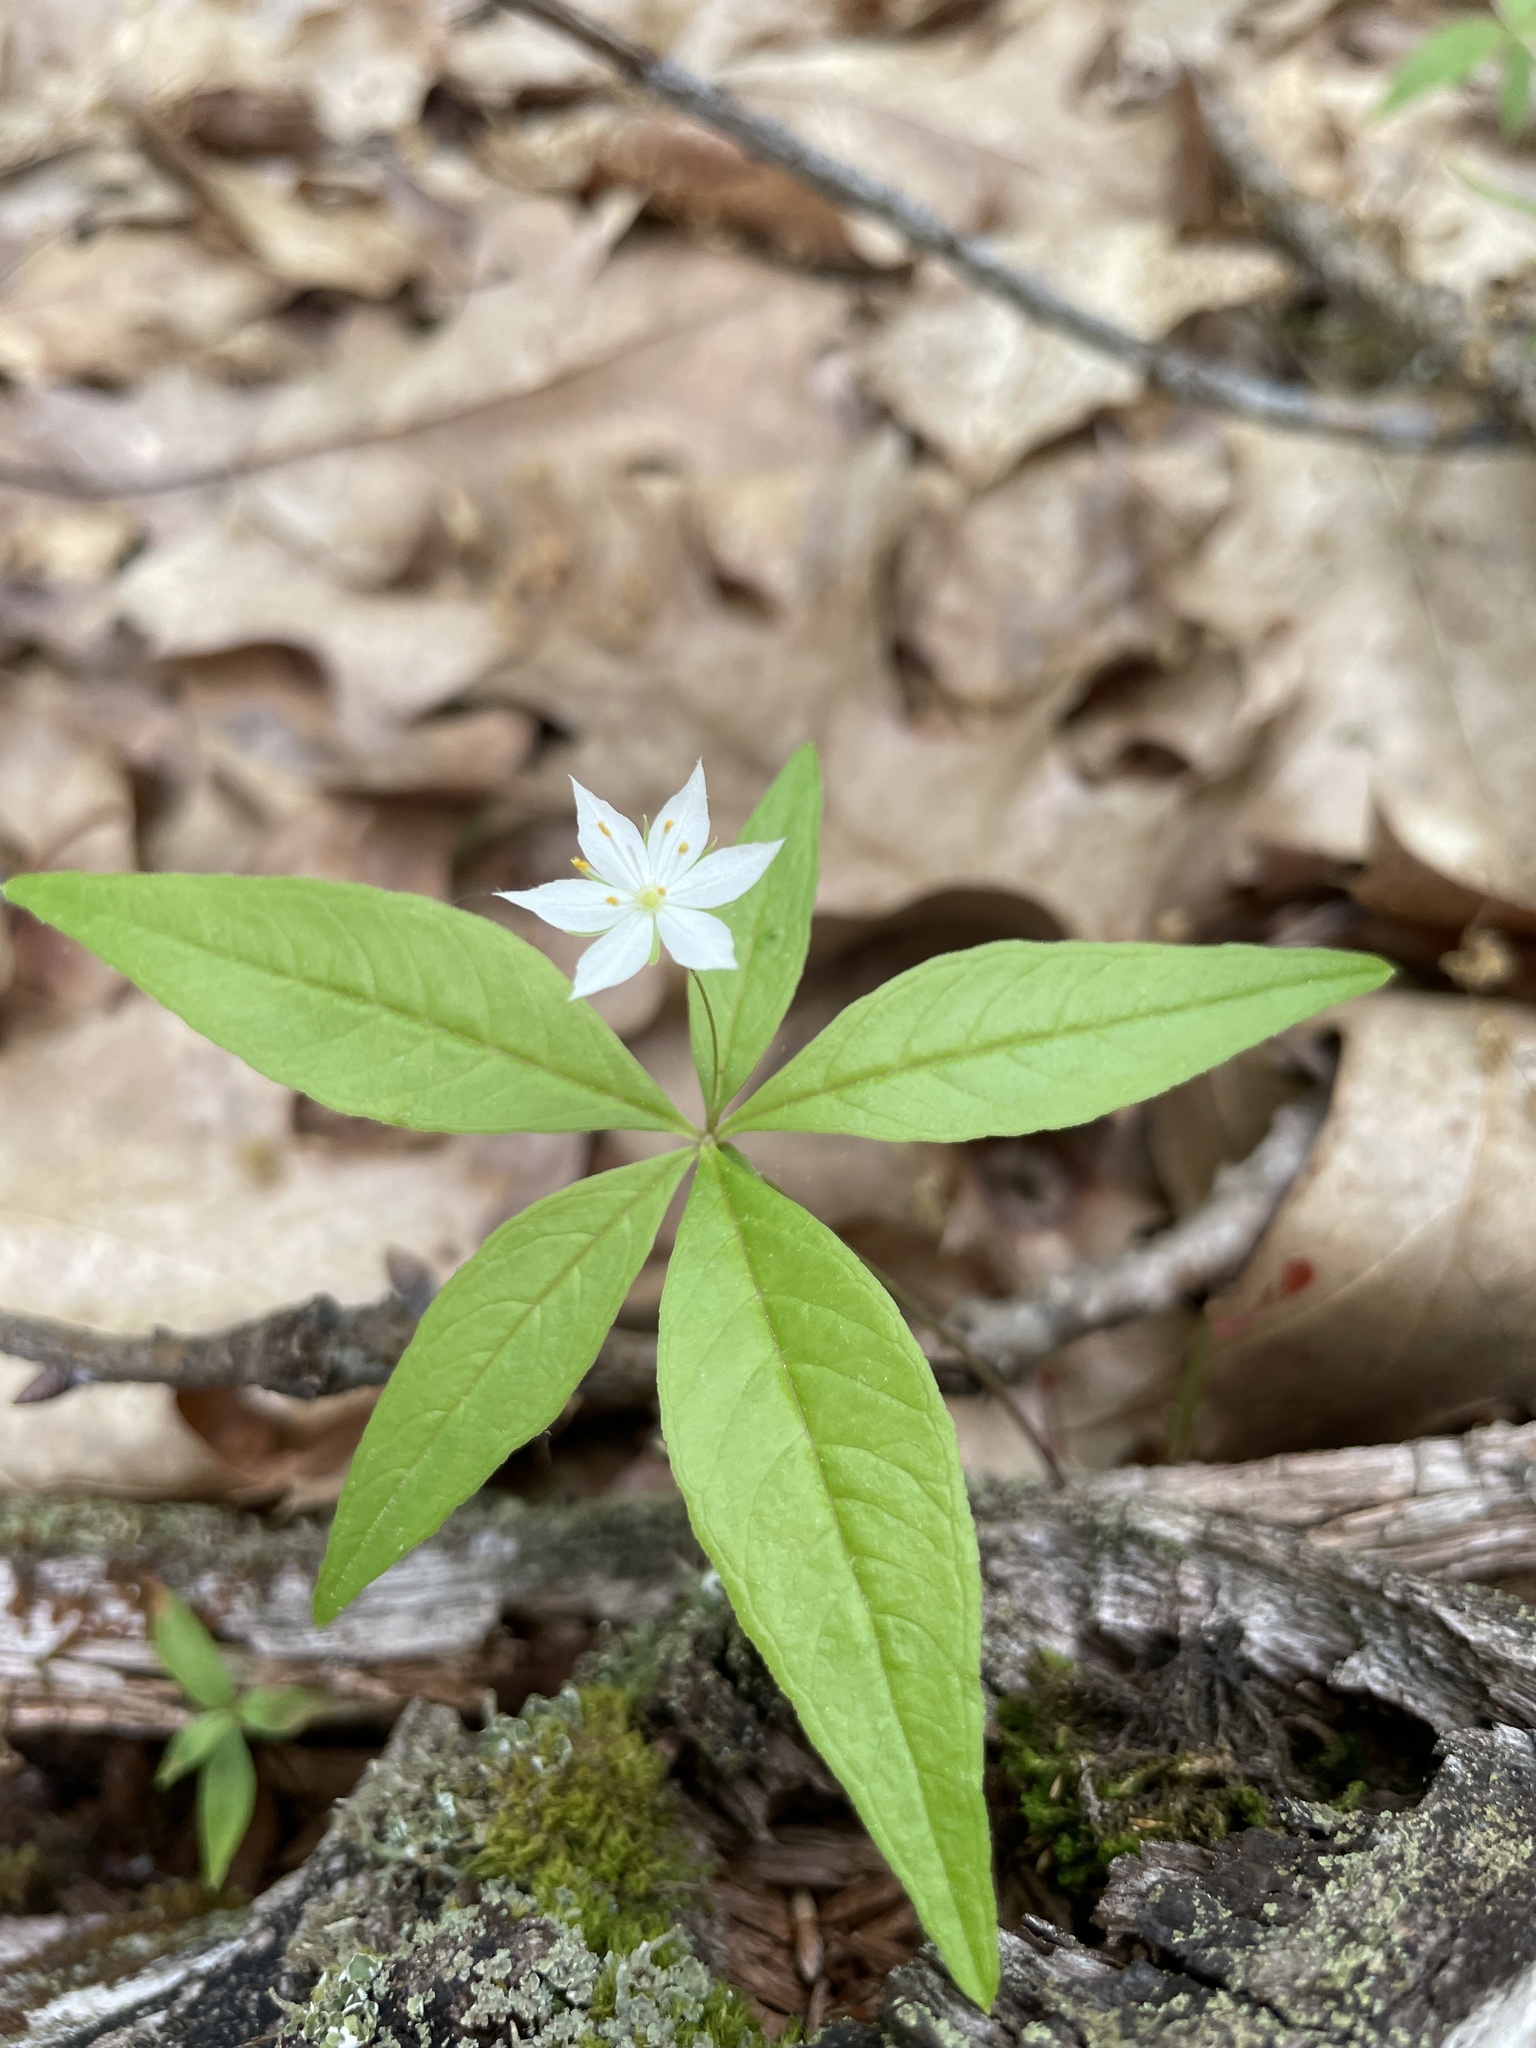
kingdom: Plantae
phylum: Tracheophyta
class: Magnoliopsida
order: Ericales
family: Primulaceae
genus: Lysimachia
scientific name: Lysimachia borealis
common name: American starflower
